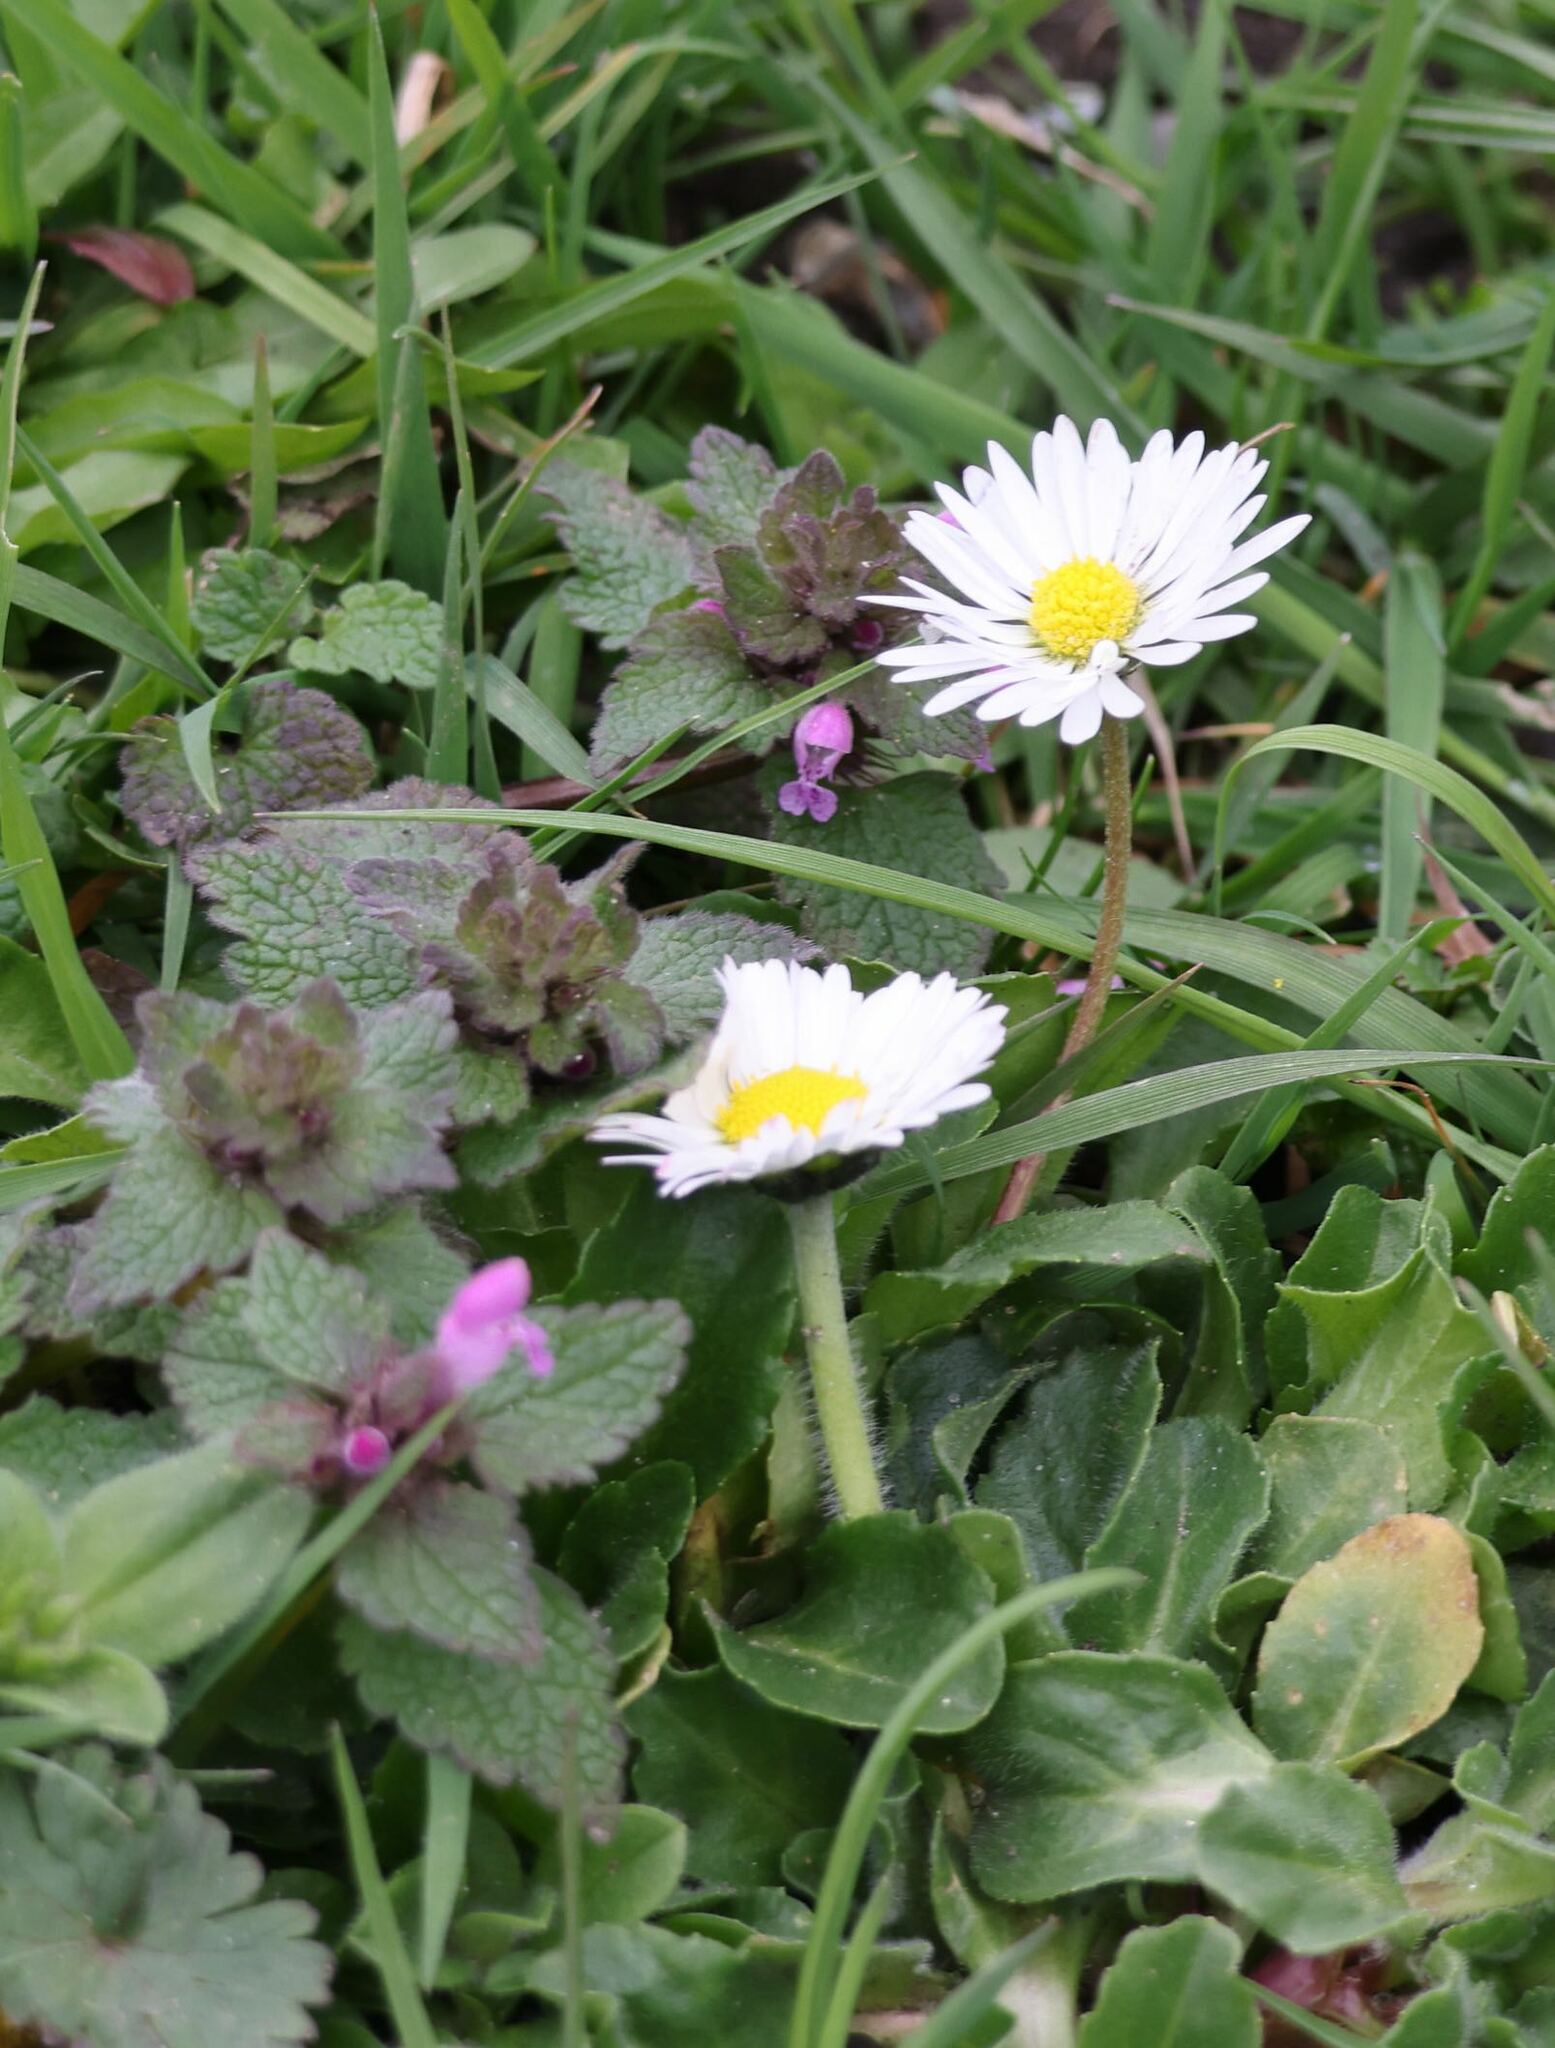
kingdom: Plantae
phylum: Tracheophyta
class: Magnoliopsida
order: Asterales
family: Asteraceae
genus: Bellis
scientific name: Bellis perennis
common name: Lawndaisy
